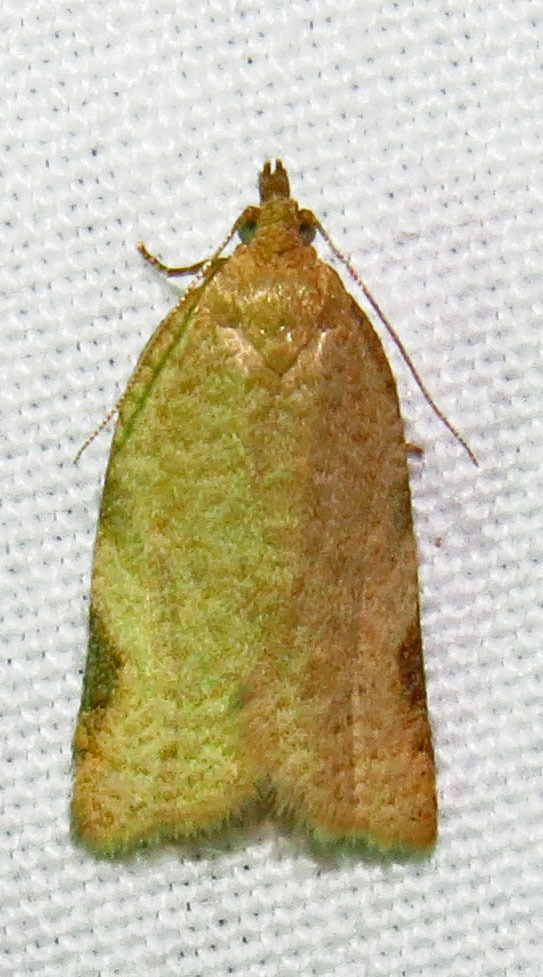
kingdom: Animalia
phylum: Arthropoda
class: Insecta
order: Lepidoptera
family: Tortricidae
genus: Clepsis
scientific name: Clepsis virescana
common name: Greenish apple moth
